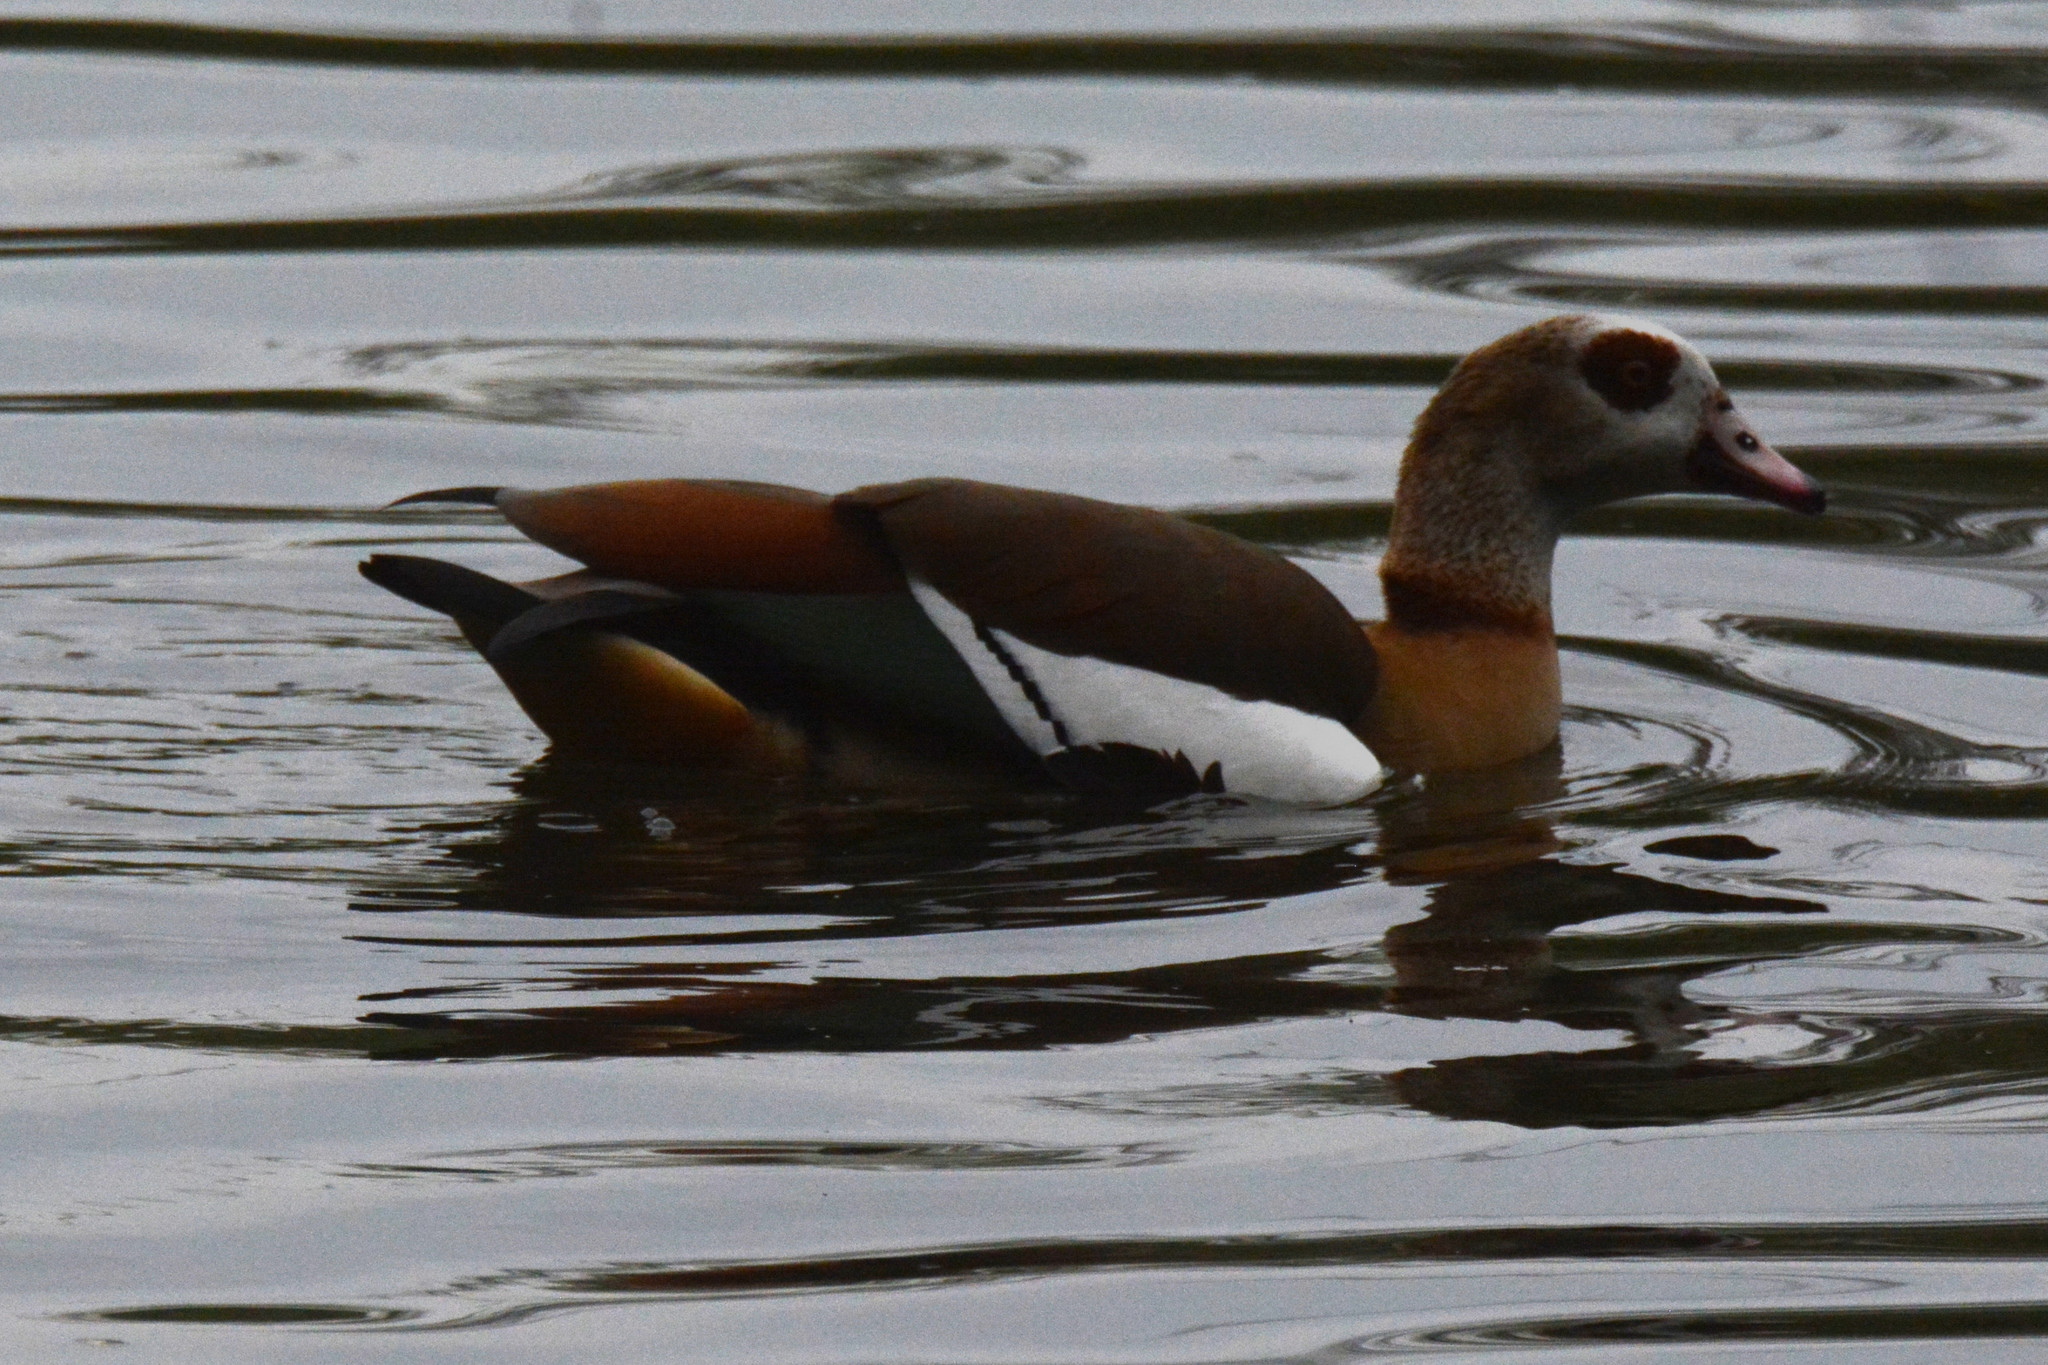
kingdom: Animalia
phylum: Chordata
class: Aves
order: Anseriformes
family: Anatidae
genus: Alopochen
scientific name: Alopochen aegyptiaca
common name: Egyptian goose
